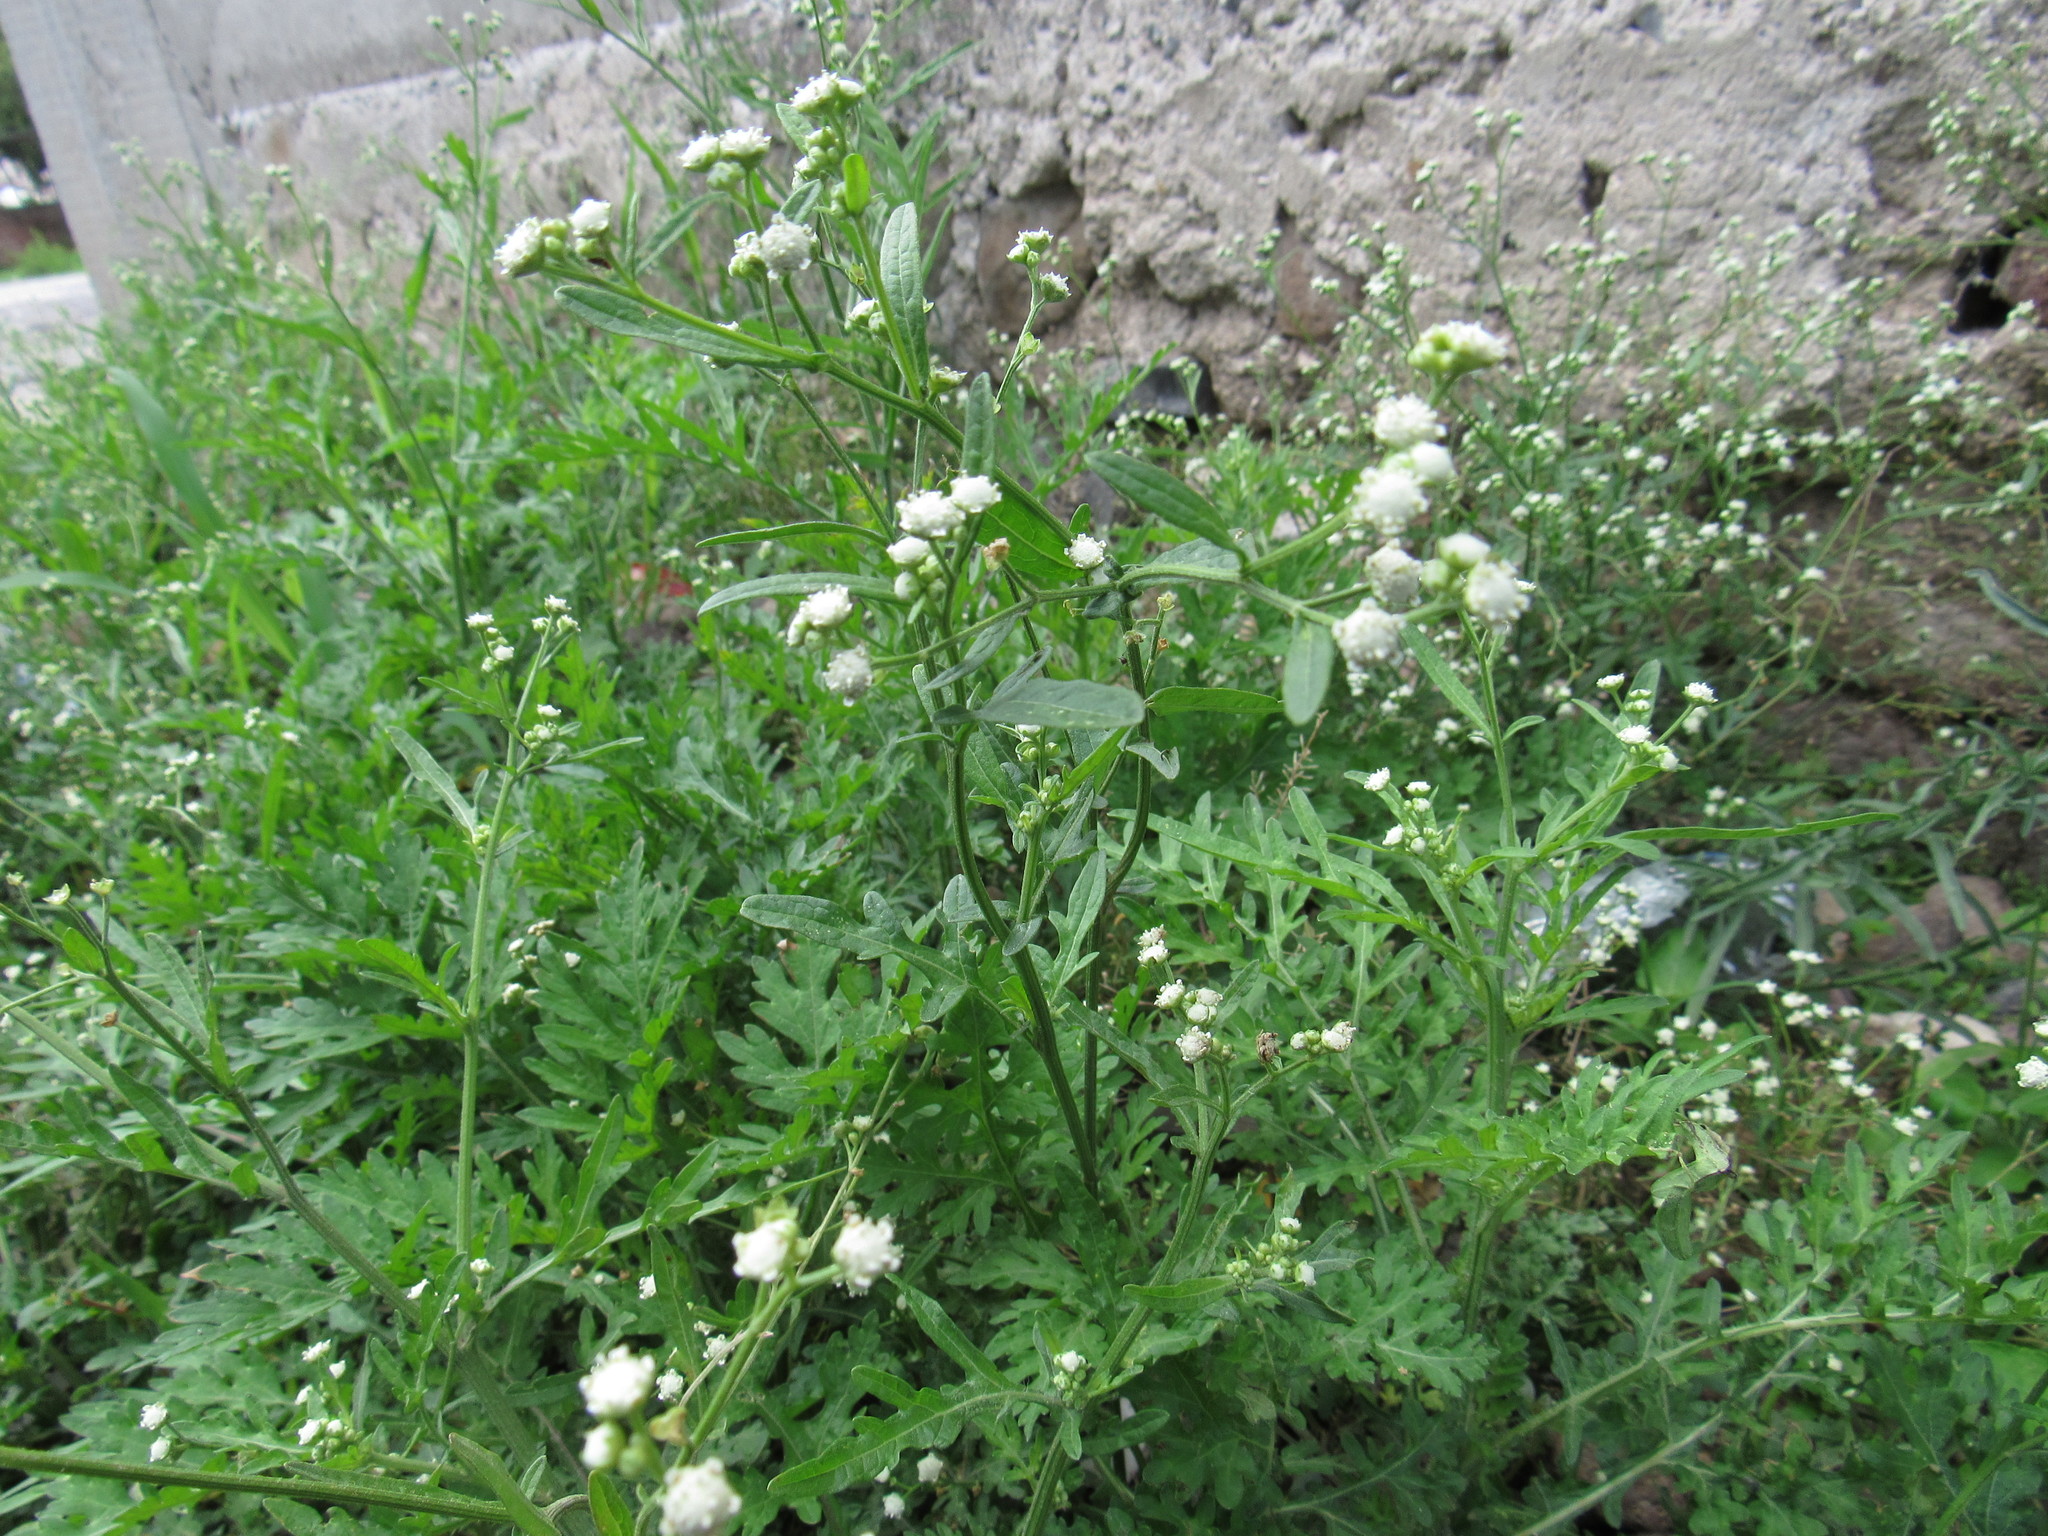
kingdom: Plantae
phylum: Tracheophyta
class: Magnoliopsida
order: Asterales
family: Asteraceae
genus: Parthenium
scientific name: Parthenium hysterophorus
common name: Santa maria feverfew
